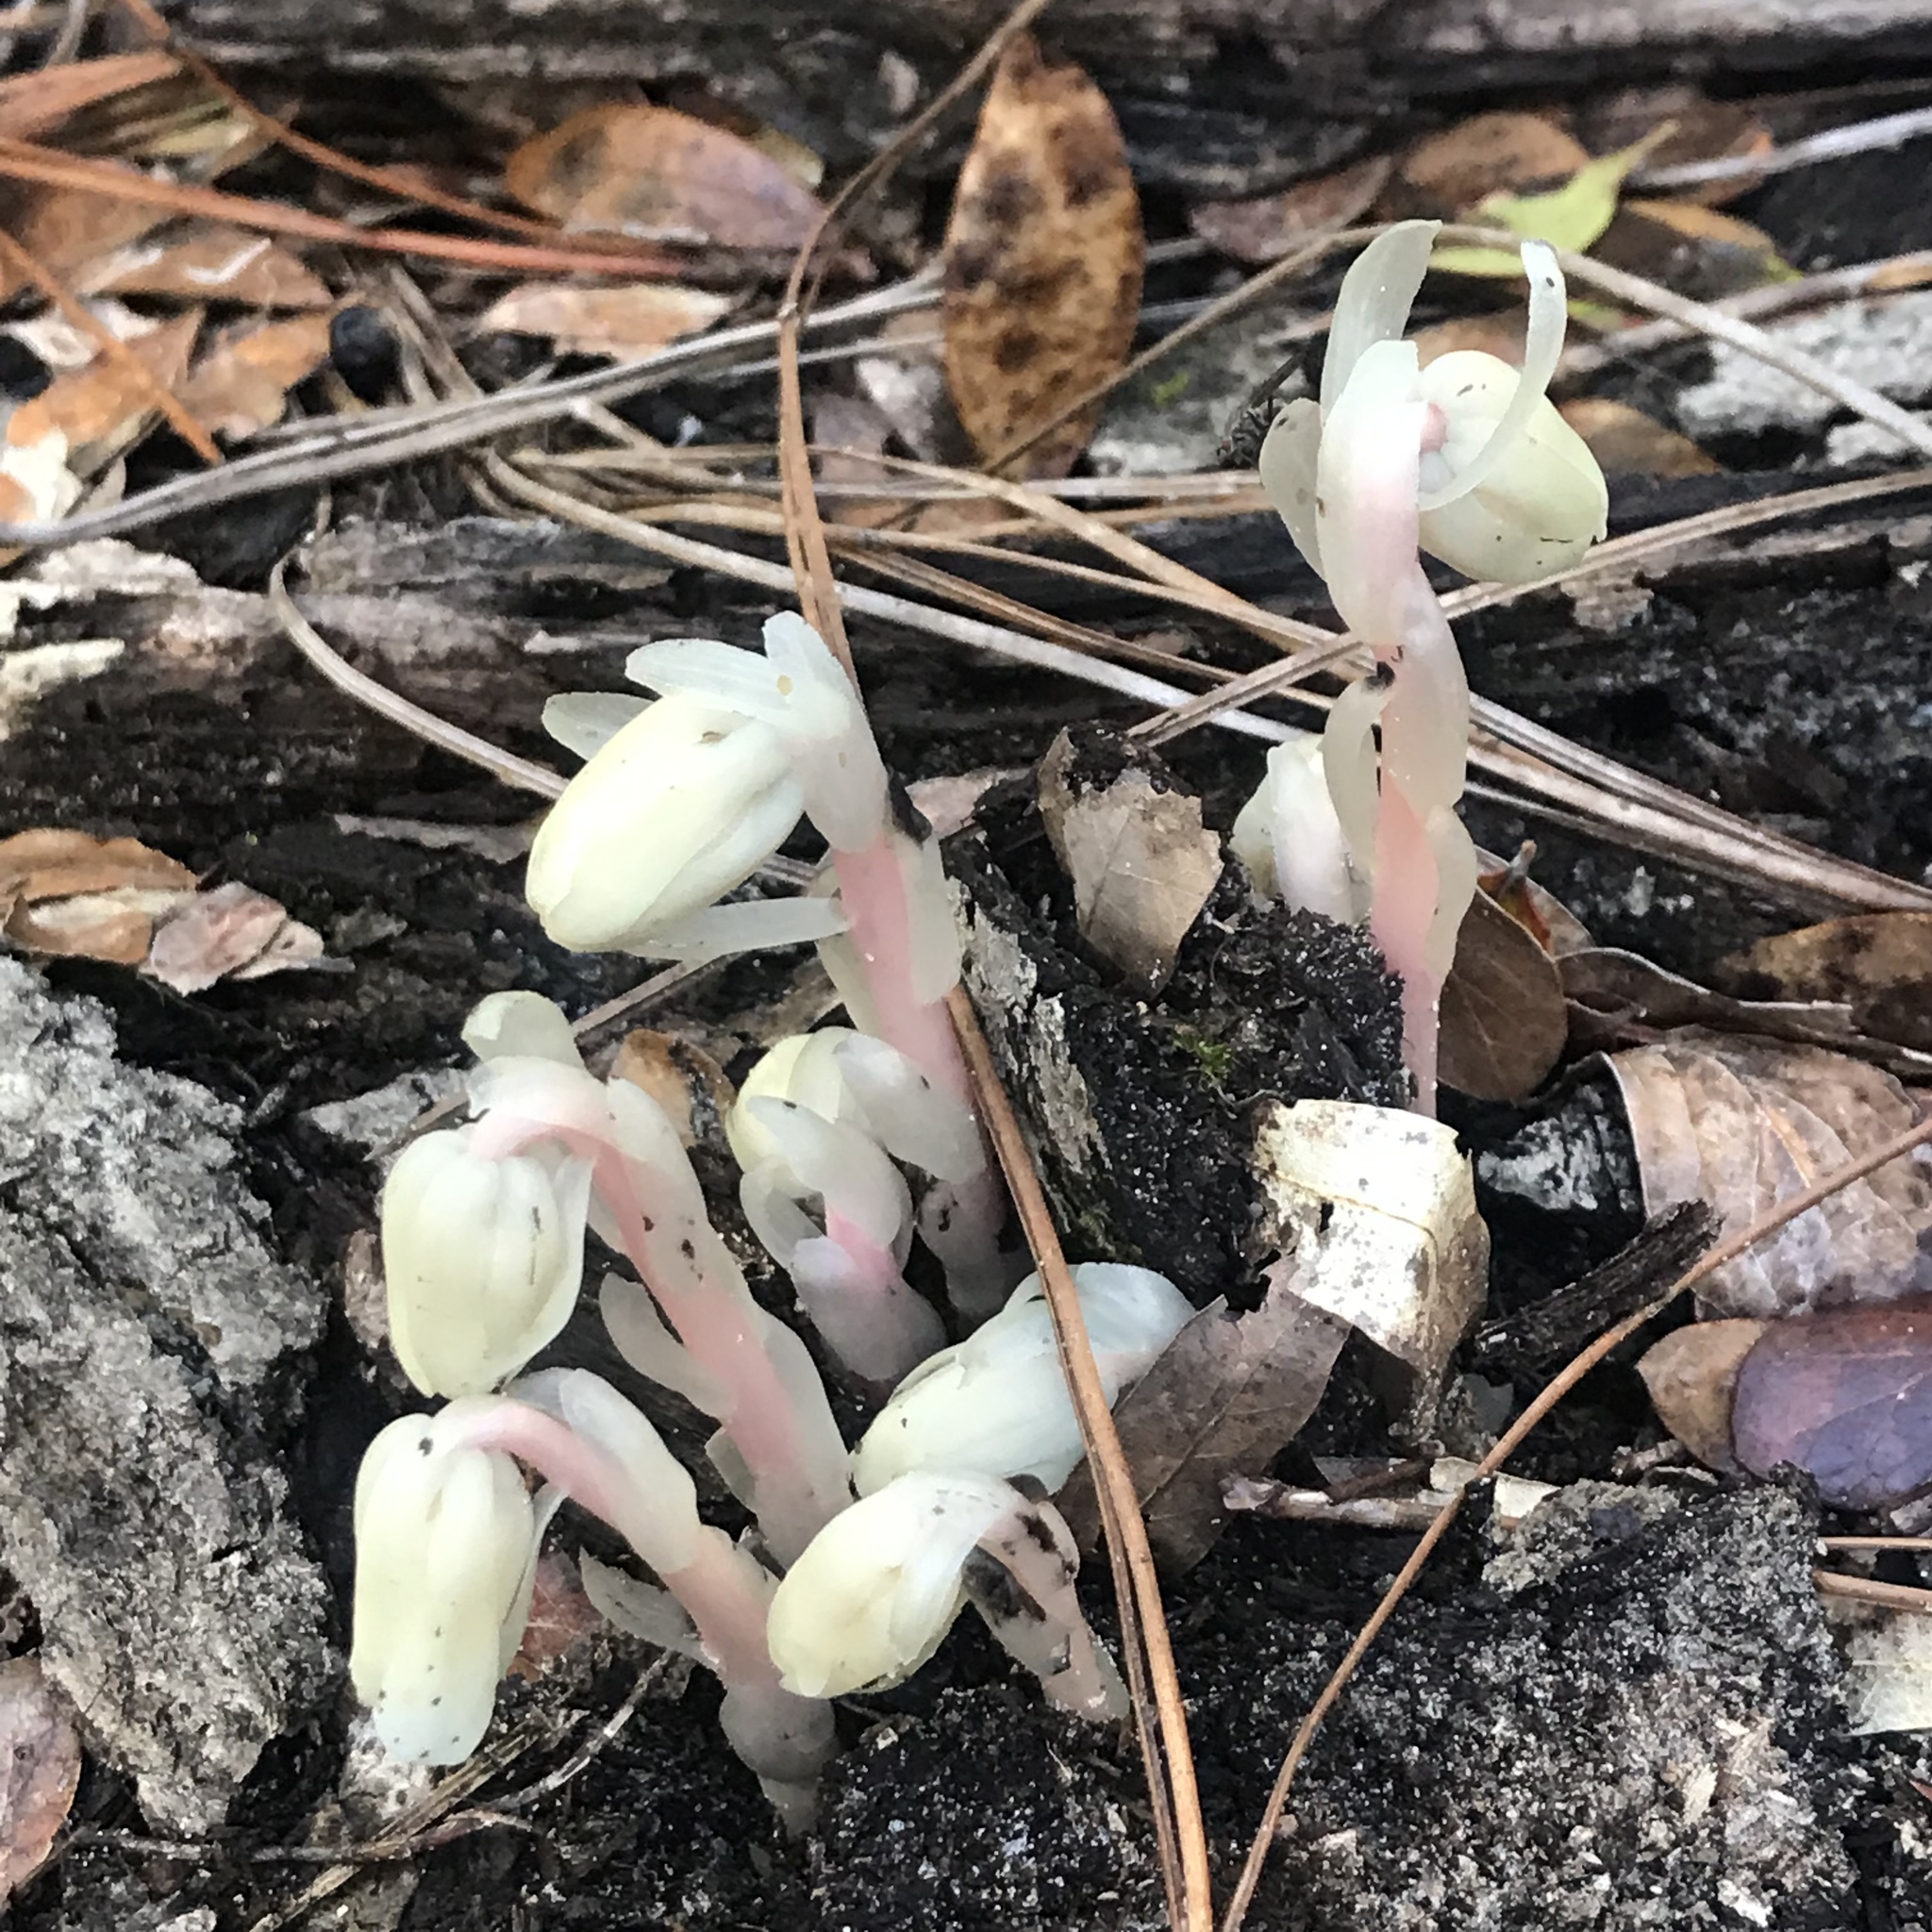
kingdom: Plantae
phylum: Tracheophyta
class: Magnoliopsida
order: Ericales
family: Ericaceae
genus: Monotropa
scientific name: Monotropa uniflora
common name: Convulsion root
